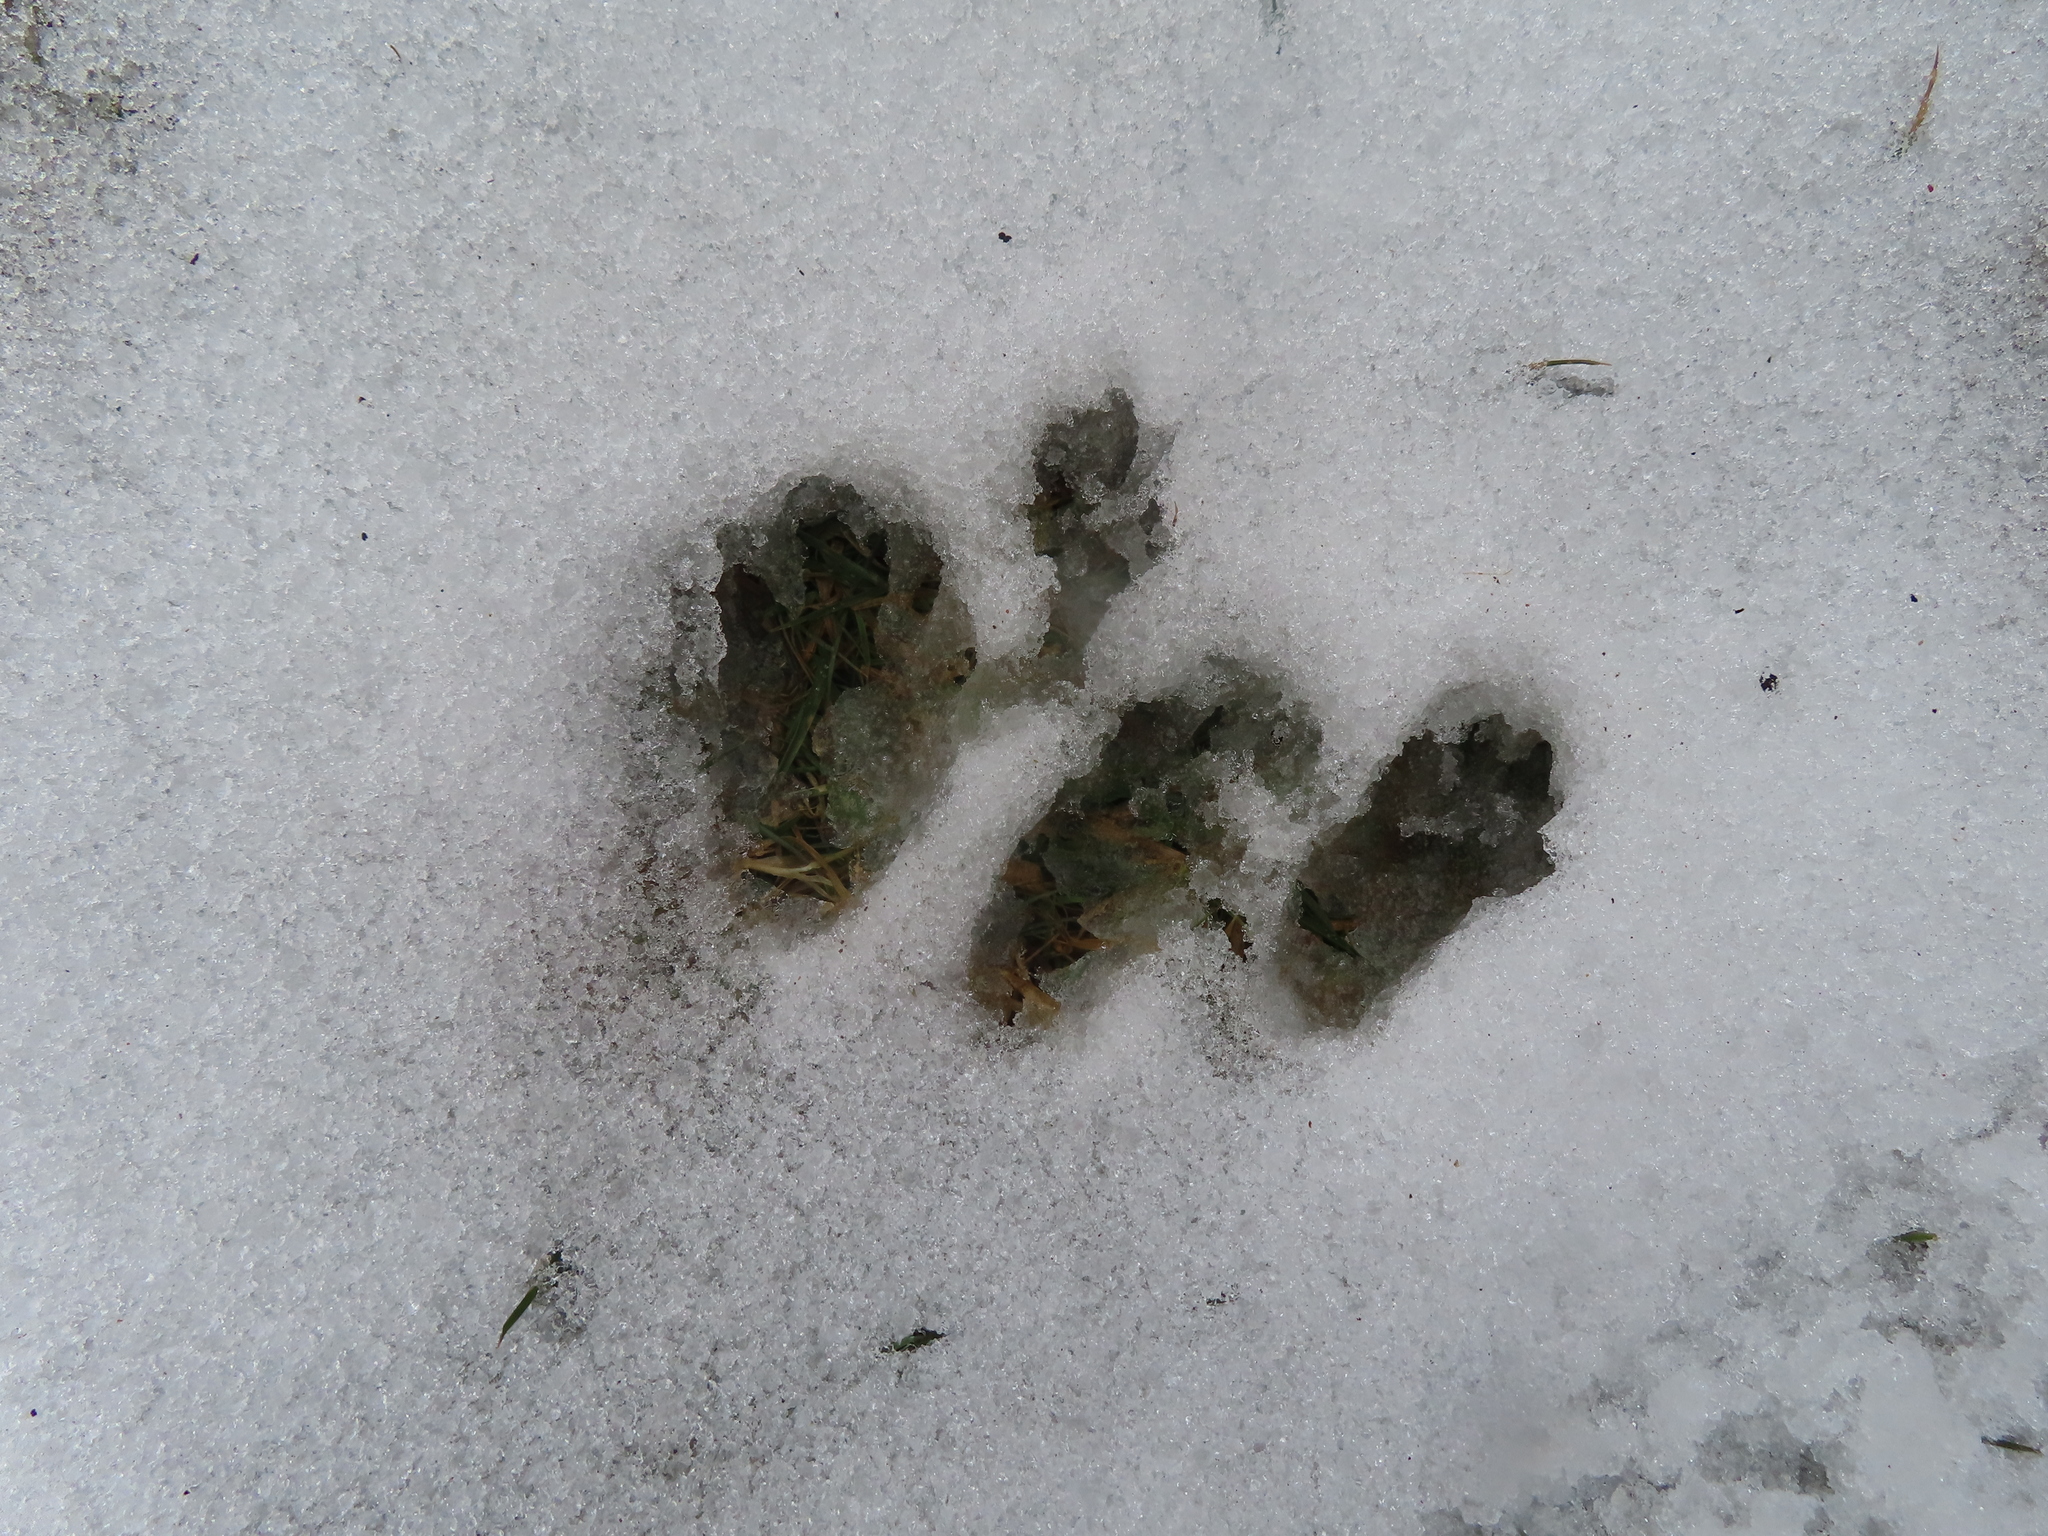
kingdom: Animalia
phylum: Chordata
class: Mammalia
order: Rodentia
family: Sciuridae
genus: Sciurus
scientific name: Sciurus carolinensis
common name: Eastern gray squirrel
